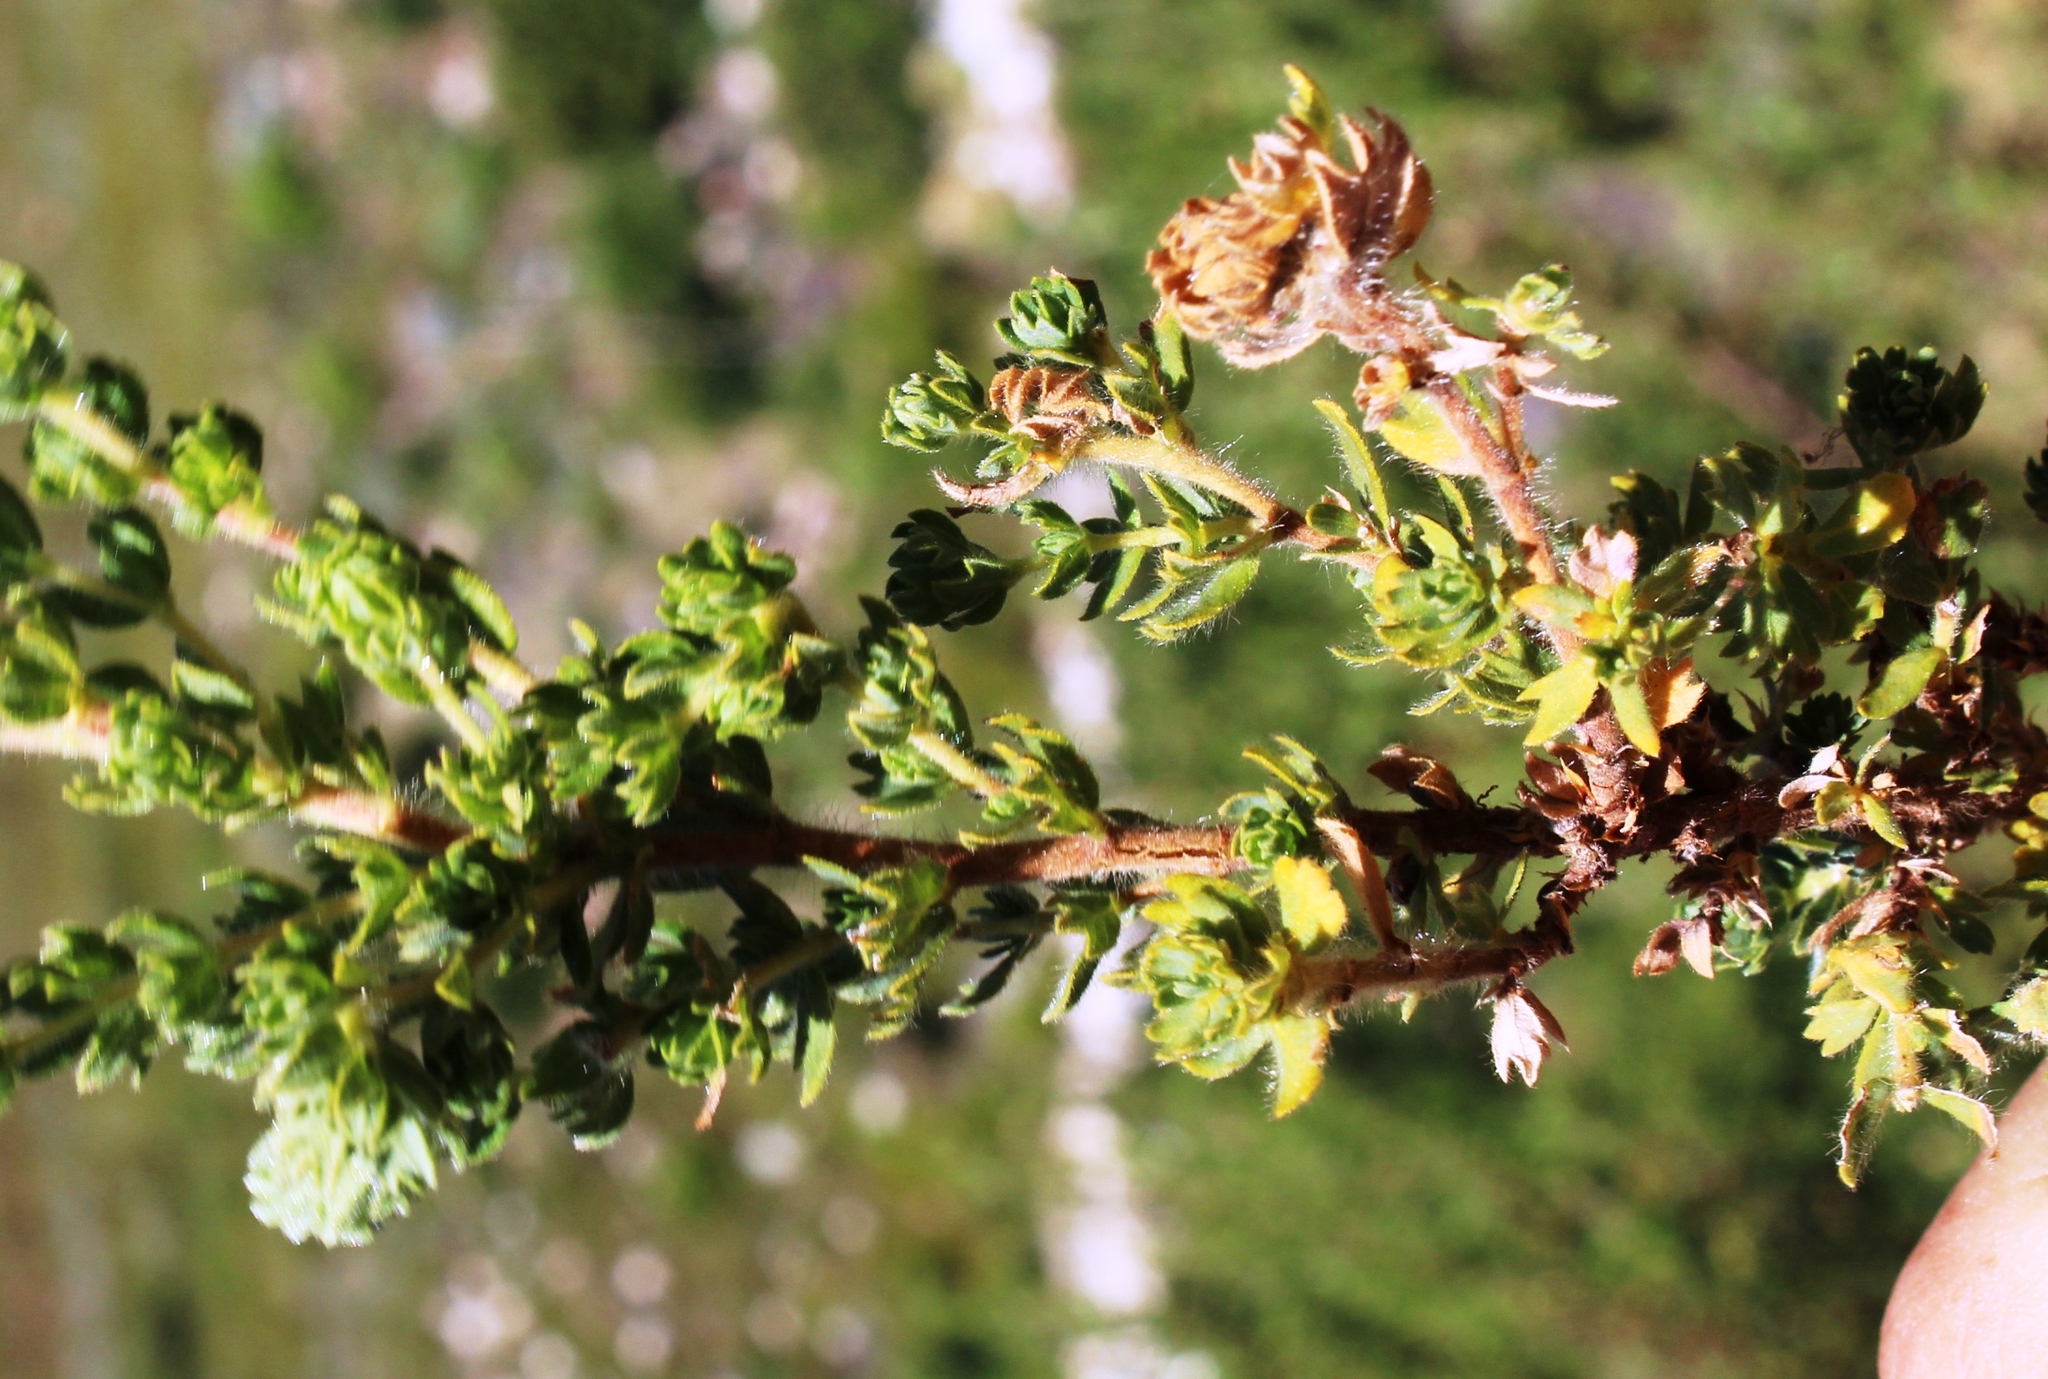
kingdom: Plantae
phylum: Tracheophyta
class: Magnoliopsida
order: Rosales
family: Rosaceae
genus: Cliffortia
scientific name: Cliffortia polygonifolia
